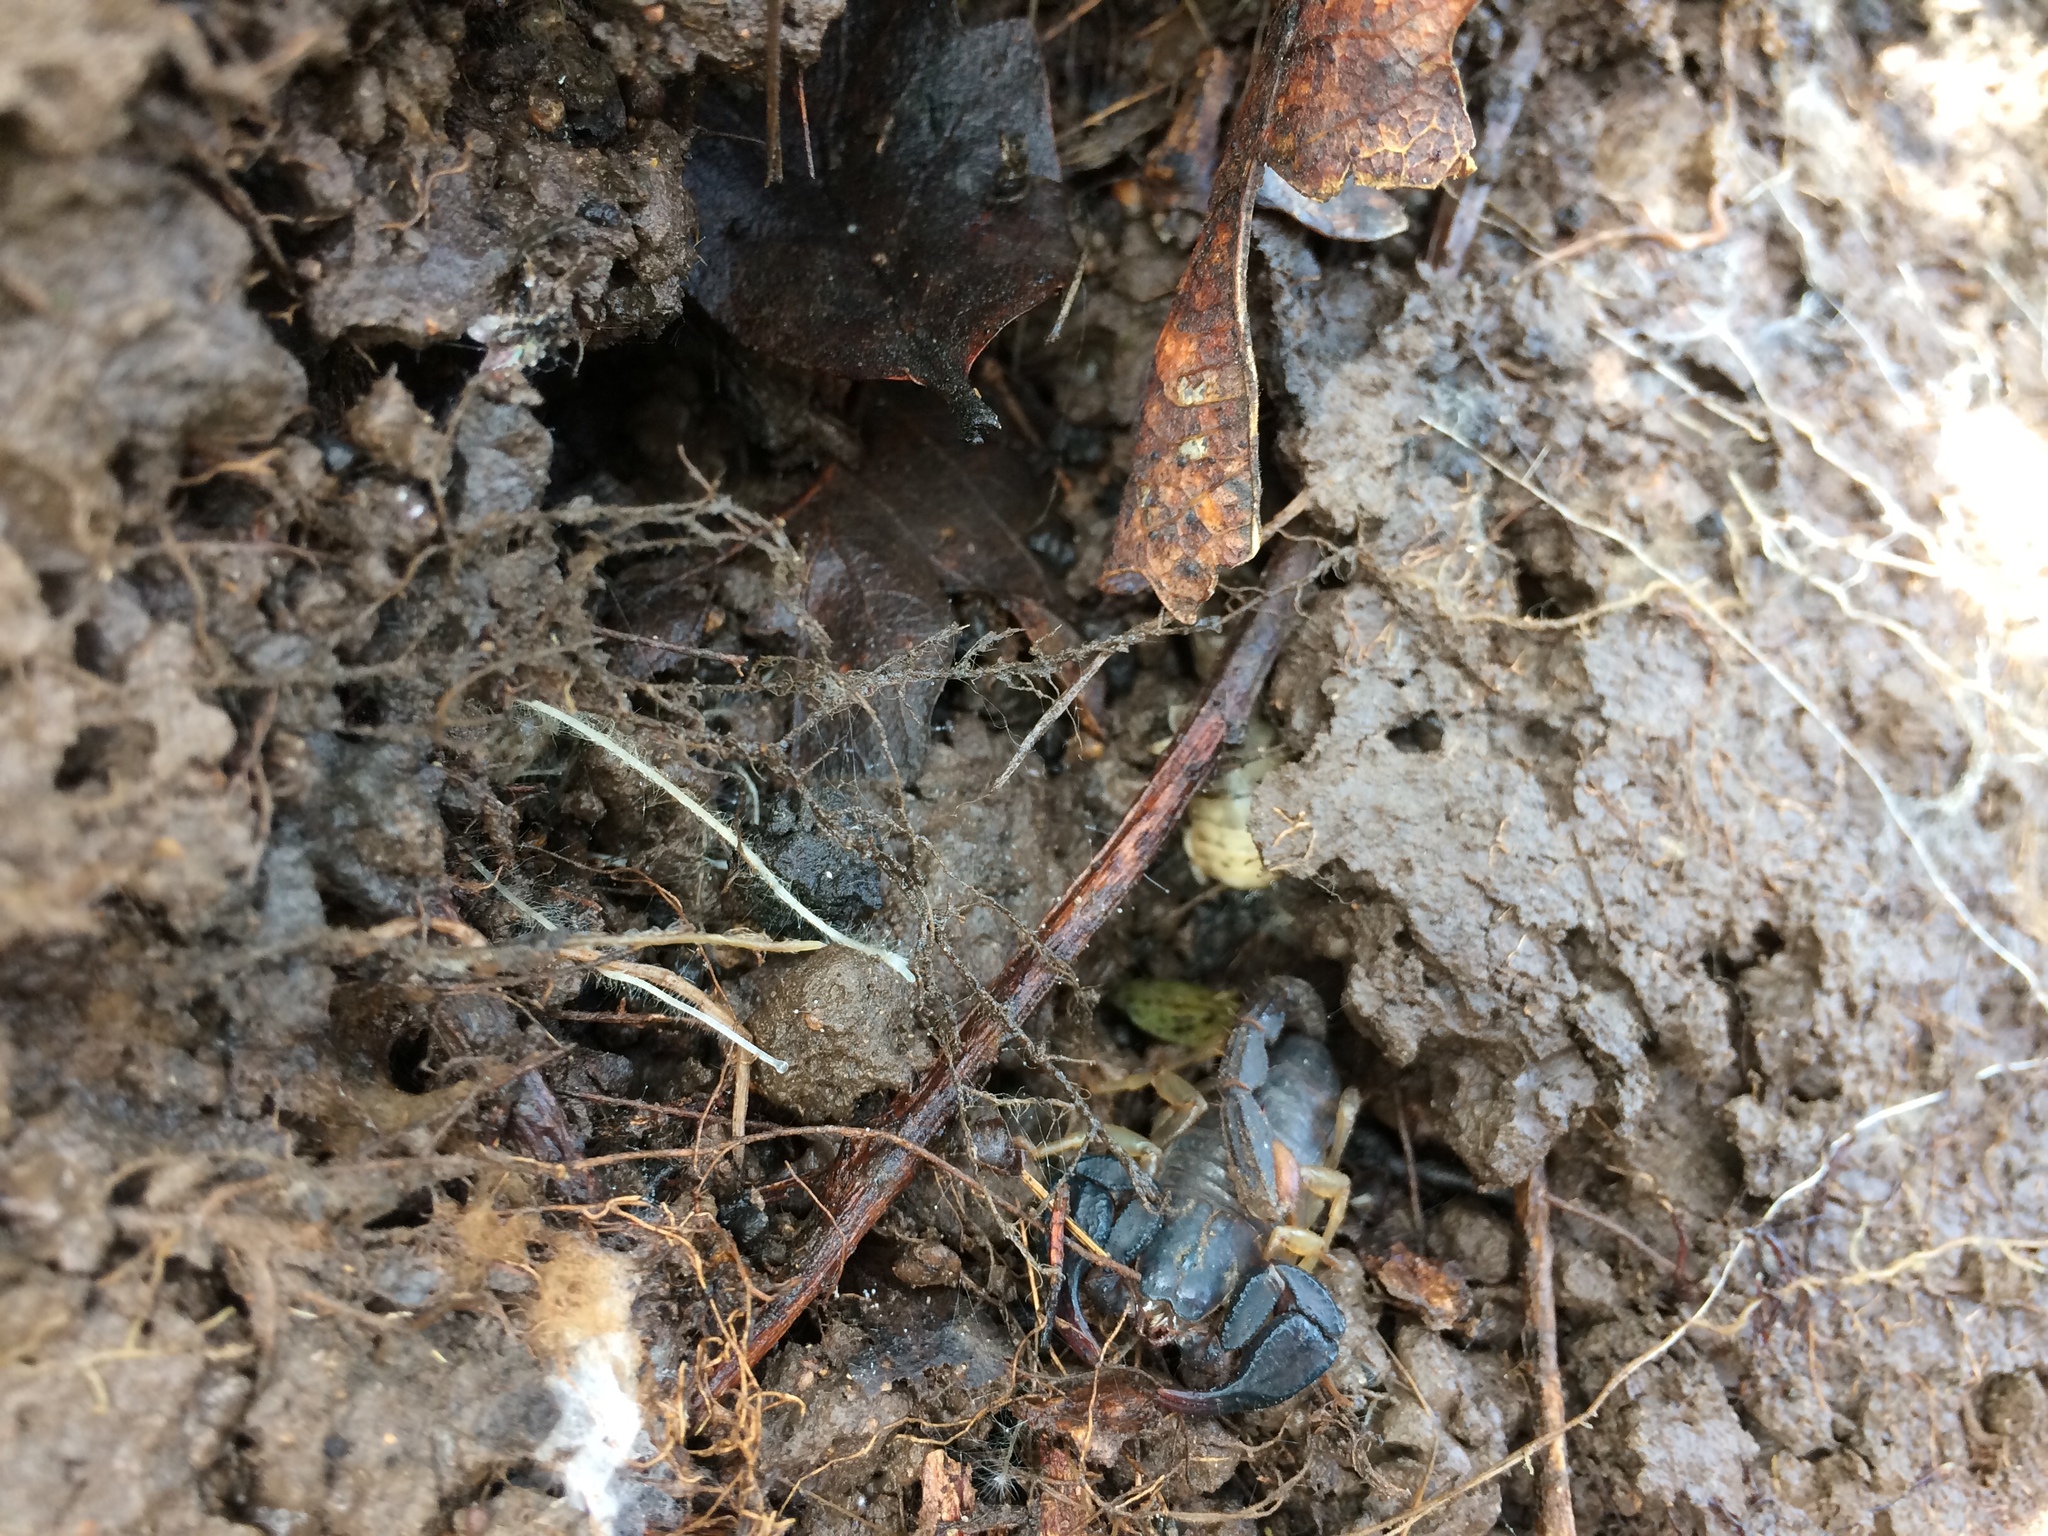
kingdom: Animalia
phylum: Arthropoda
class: Arachnida
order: Scorpiones
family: Chactidae
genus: Uroctonus
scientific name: Uroctonus mordax
